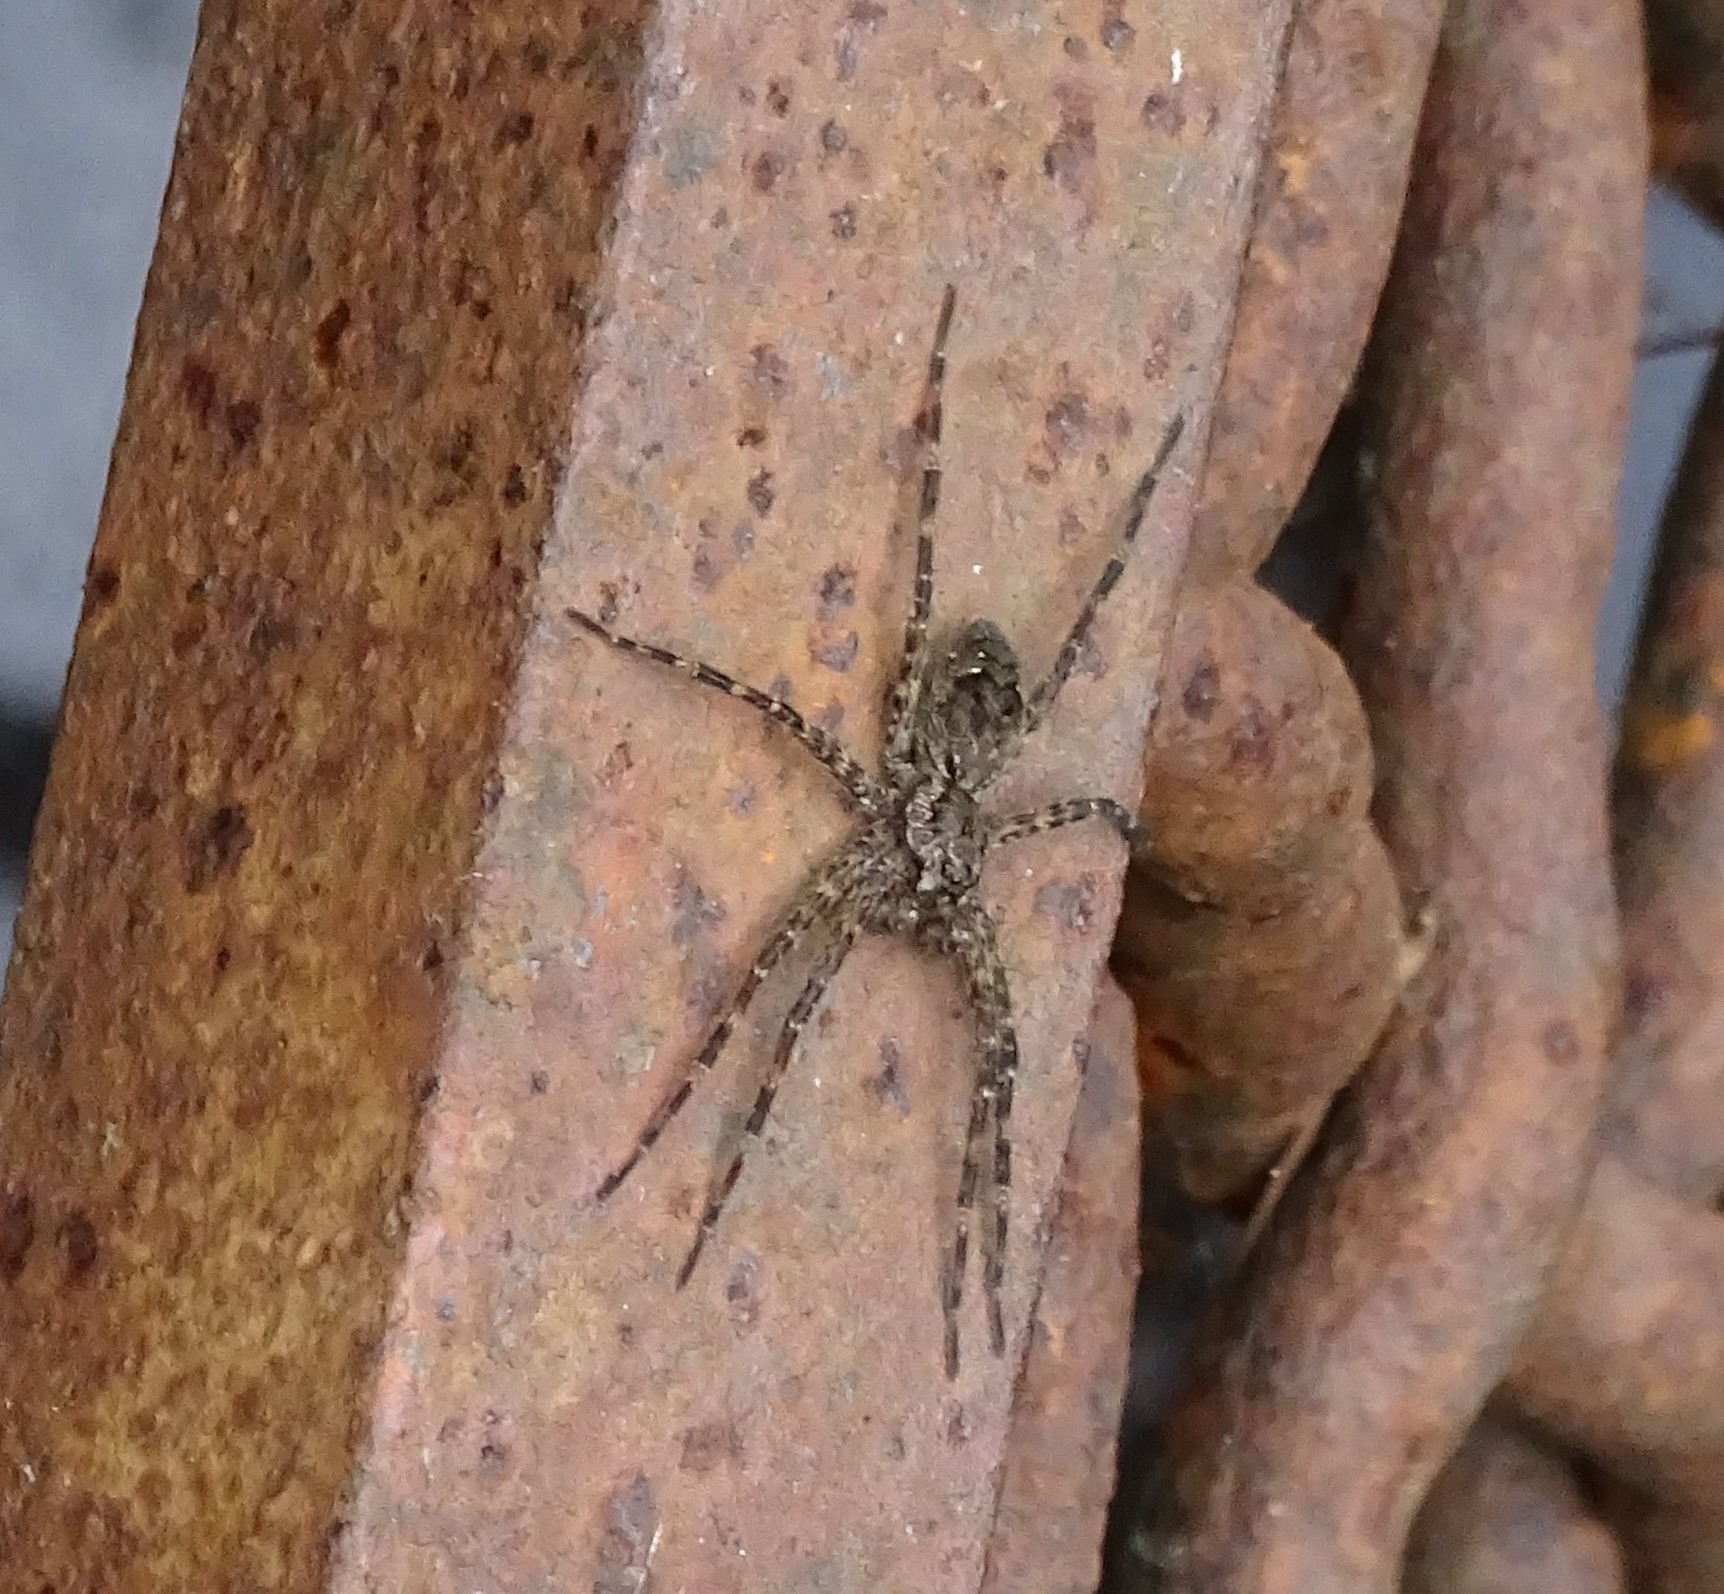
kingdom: Animalia
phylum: Arthropoda
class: Arachnida
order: Araneae
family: Pisauridae
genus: Dolomedes
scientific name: Dolomedes tenebrosus
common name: Dark fishing spider
